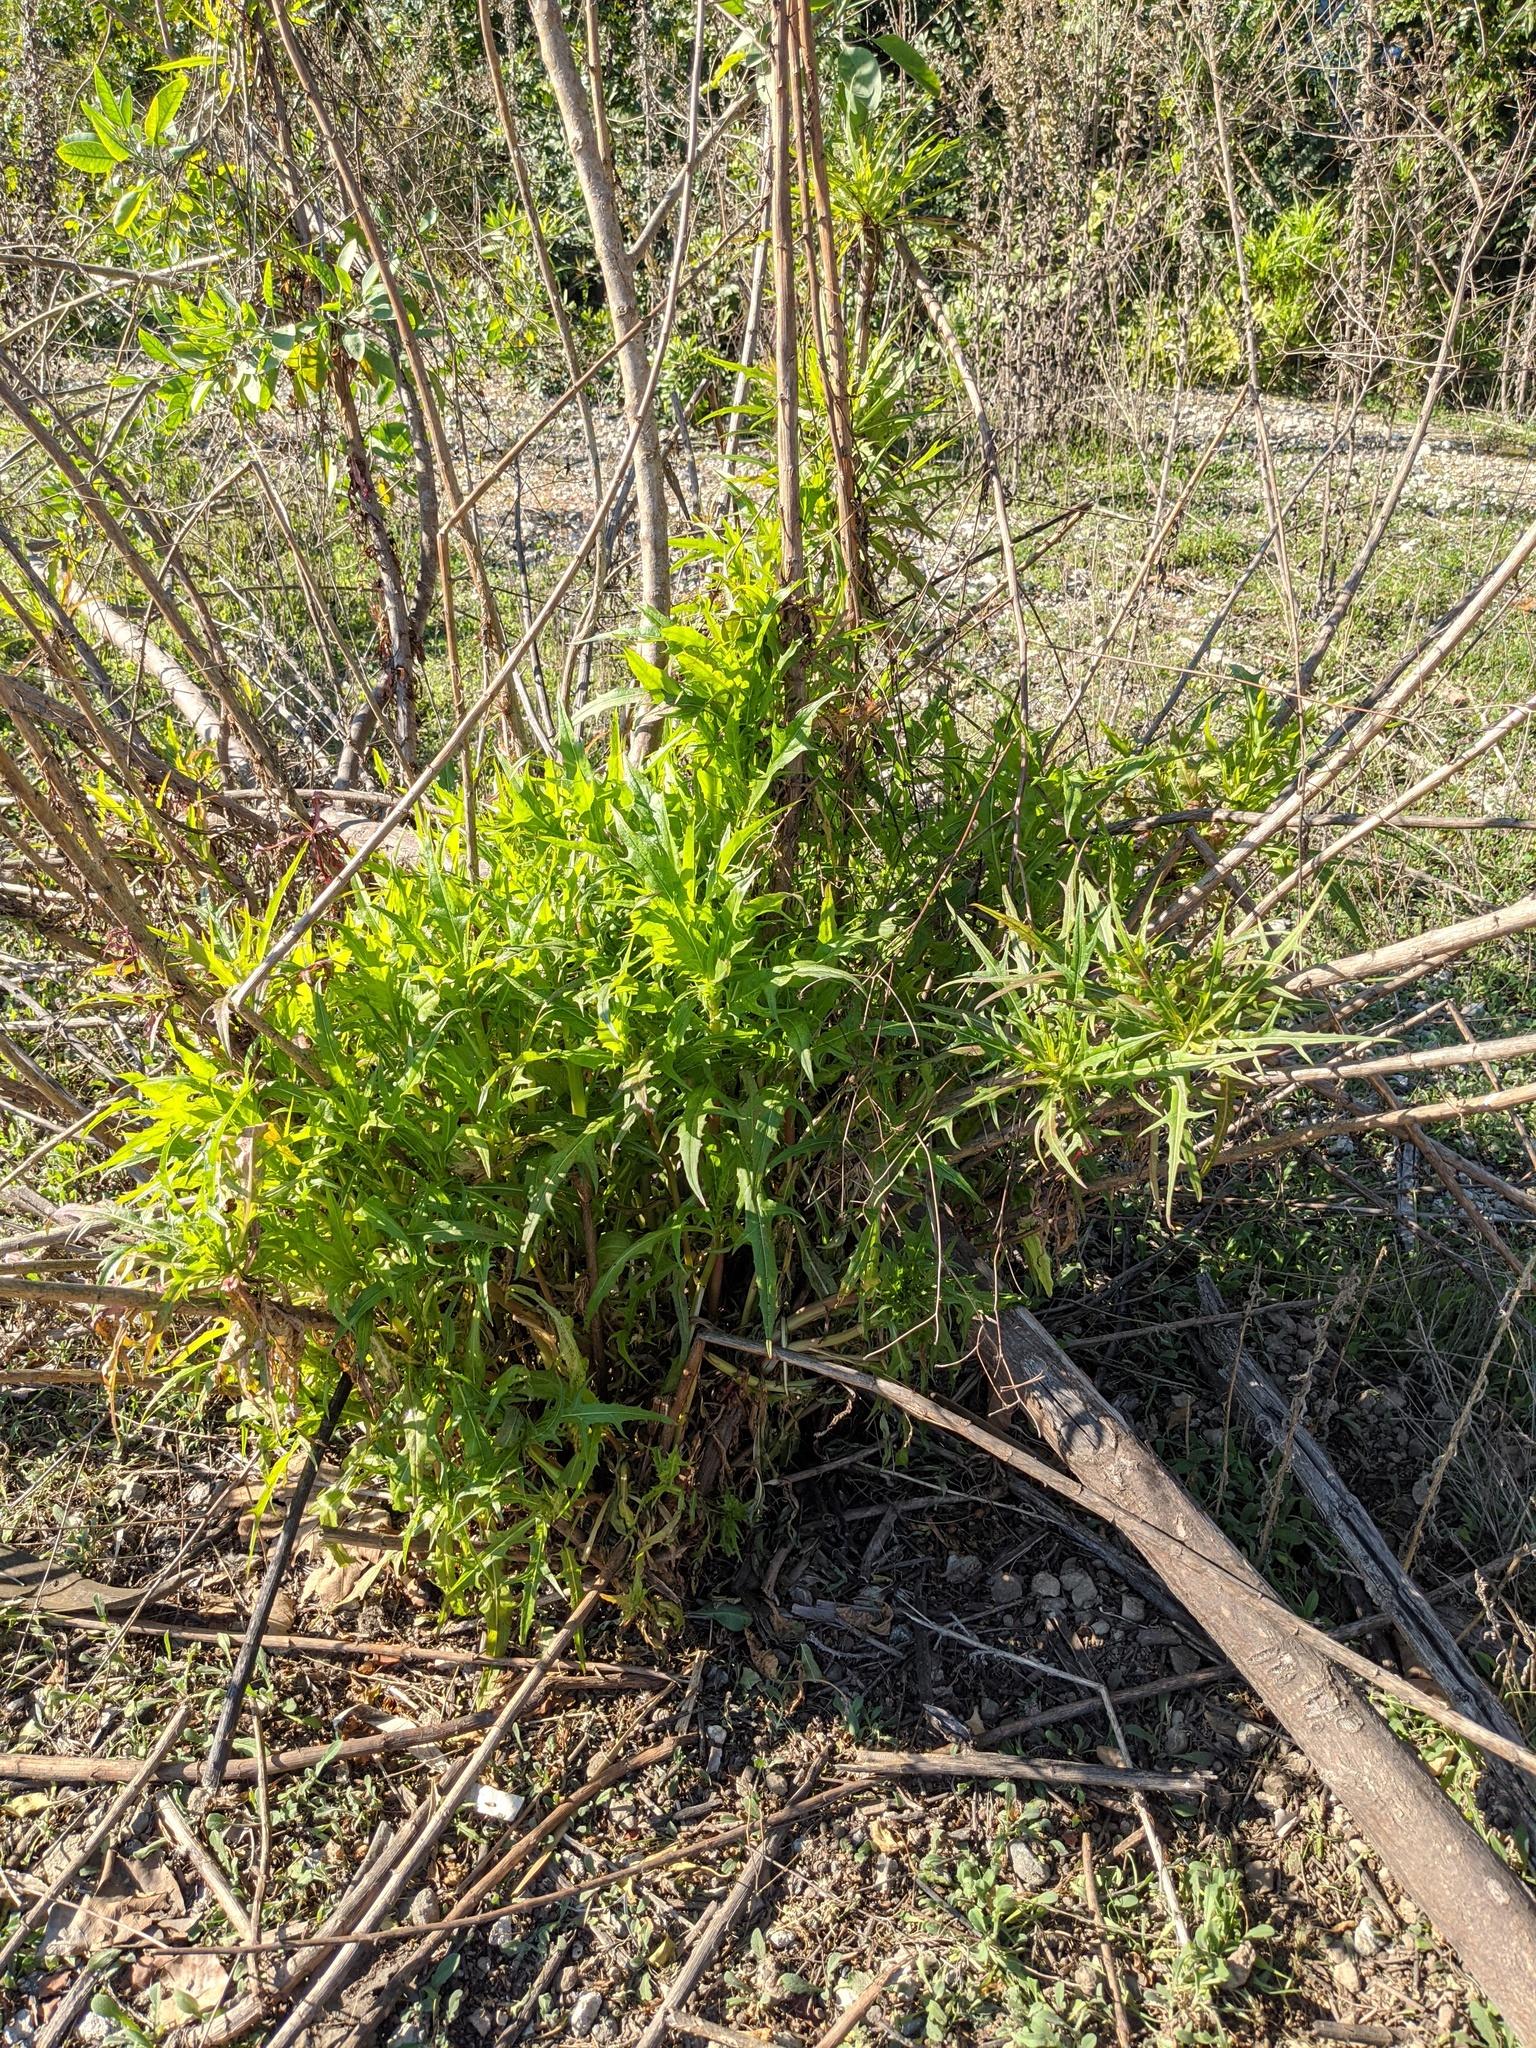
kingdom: Plantae
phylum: Tracheophyta
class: Magnoliopsida
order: Asterales
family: Asteraceae
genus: Malacothrix
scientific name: Malacothrix saxatilis
